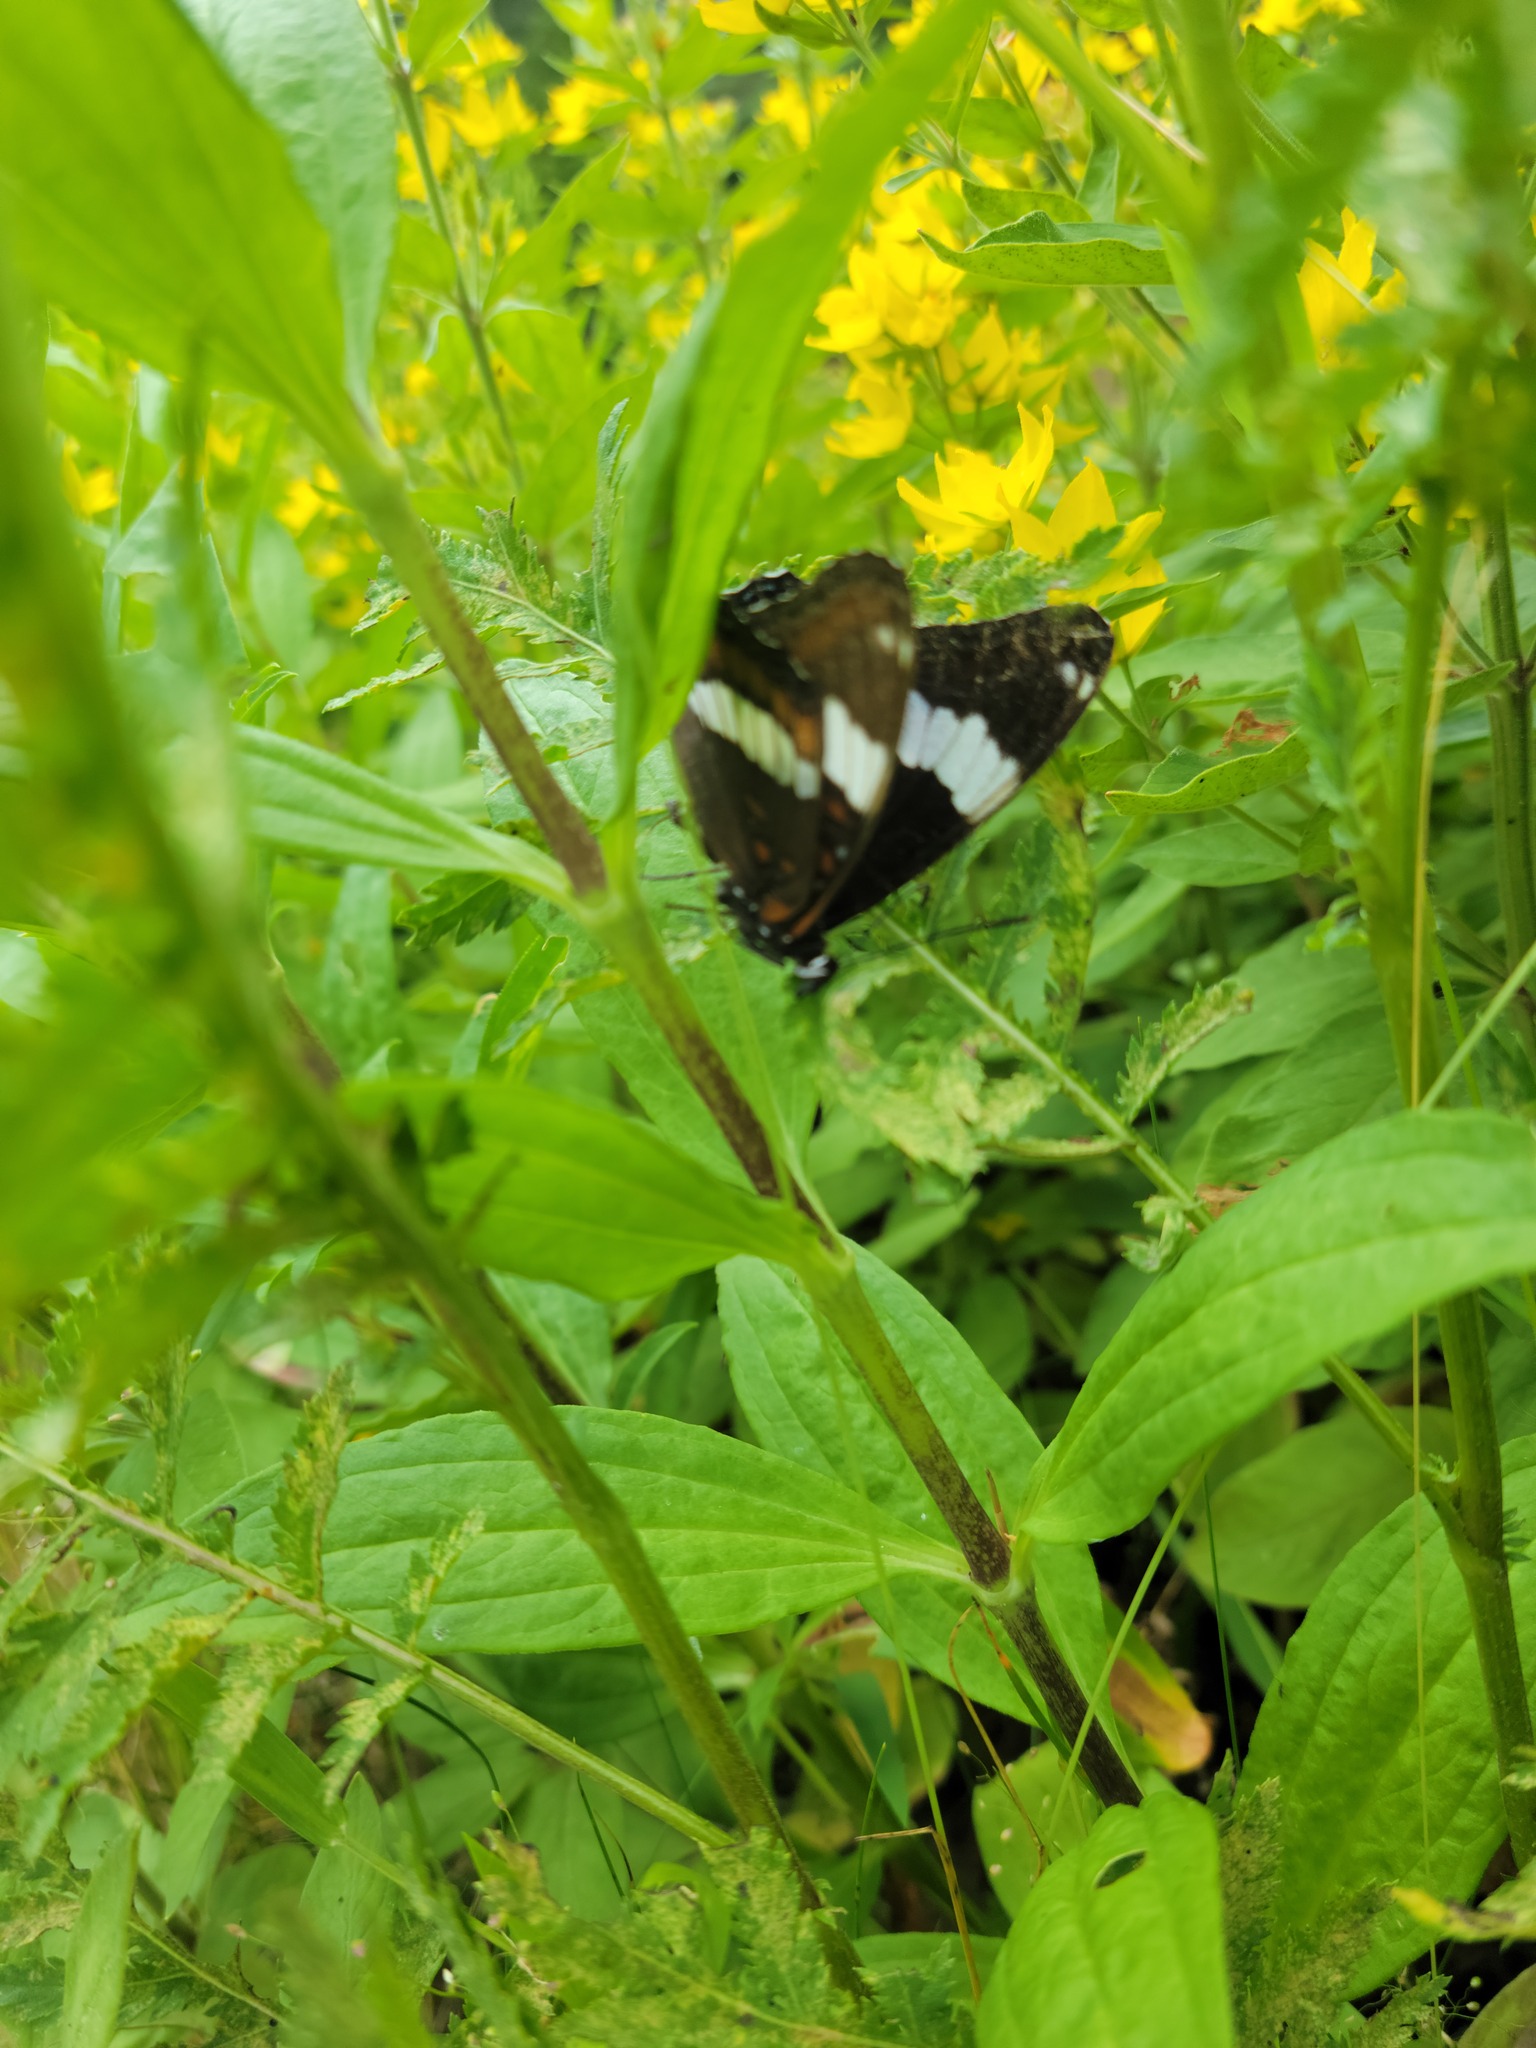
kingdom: Animalia
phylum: Arthropoda
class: Insecta
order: Lepidoptera
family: Nymphalidae
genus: Limenitis
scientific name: Limenitis arthemis
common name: Red-spotted admiral
